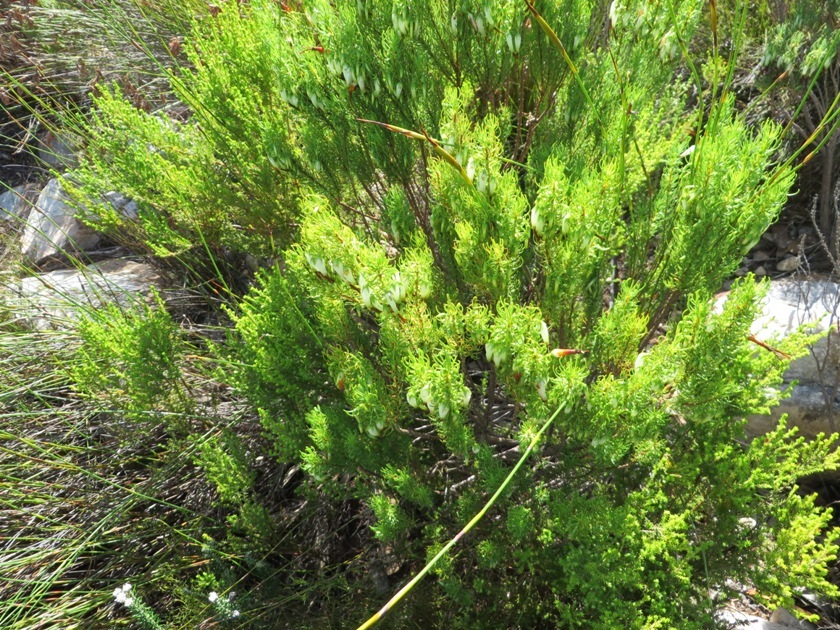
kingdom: Plantae
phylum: Tracheophyta
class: Magnoliopsida
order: Ericales
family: Ericaceae
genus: Erica
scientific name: Erica plukenetii
